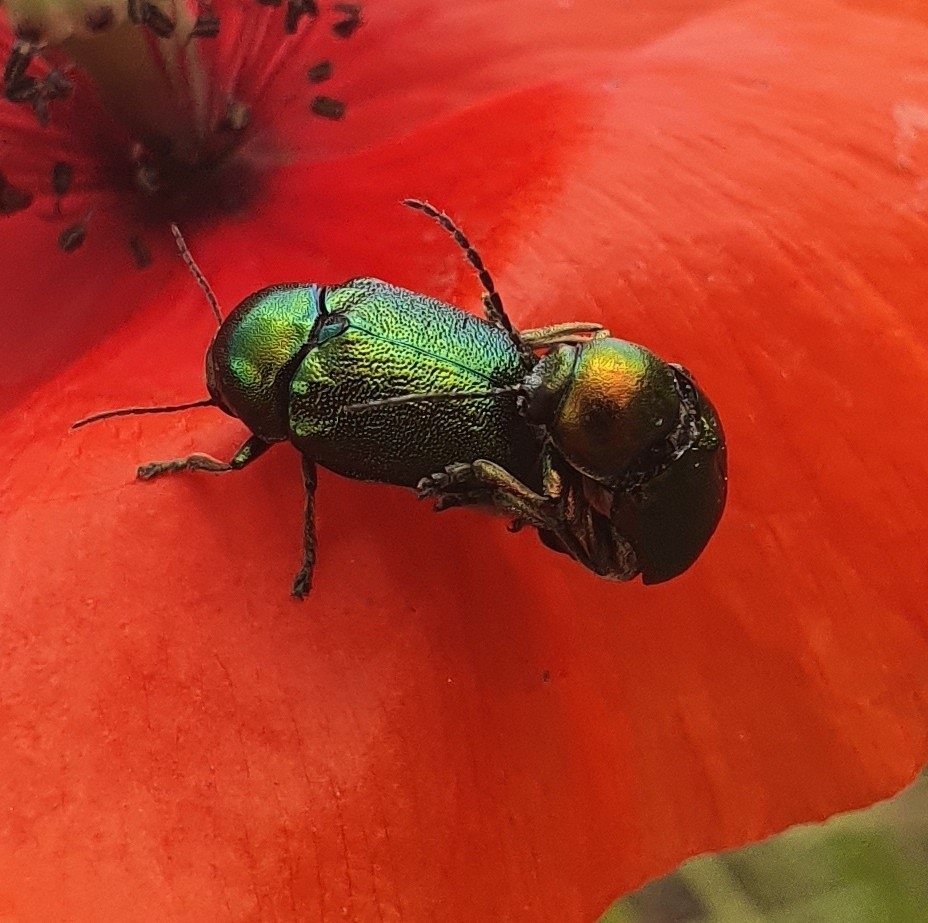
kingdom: Animalia
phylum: Arthropoda
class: Insecta
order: Coleoptera
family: Chrysomelidae
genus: Cryptocephalus
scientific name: Cryptocephalus
